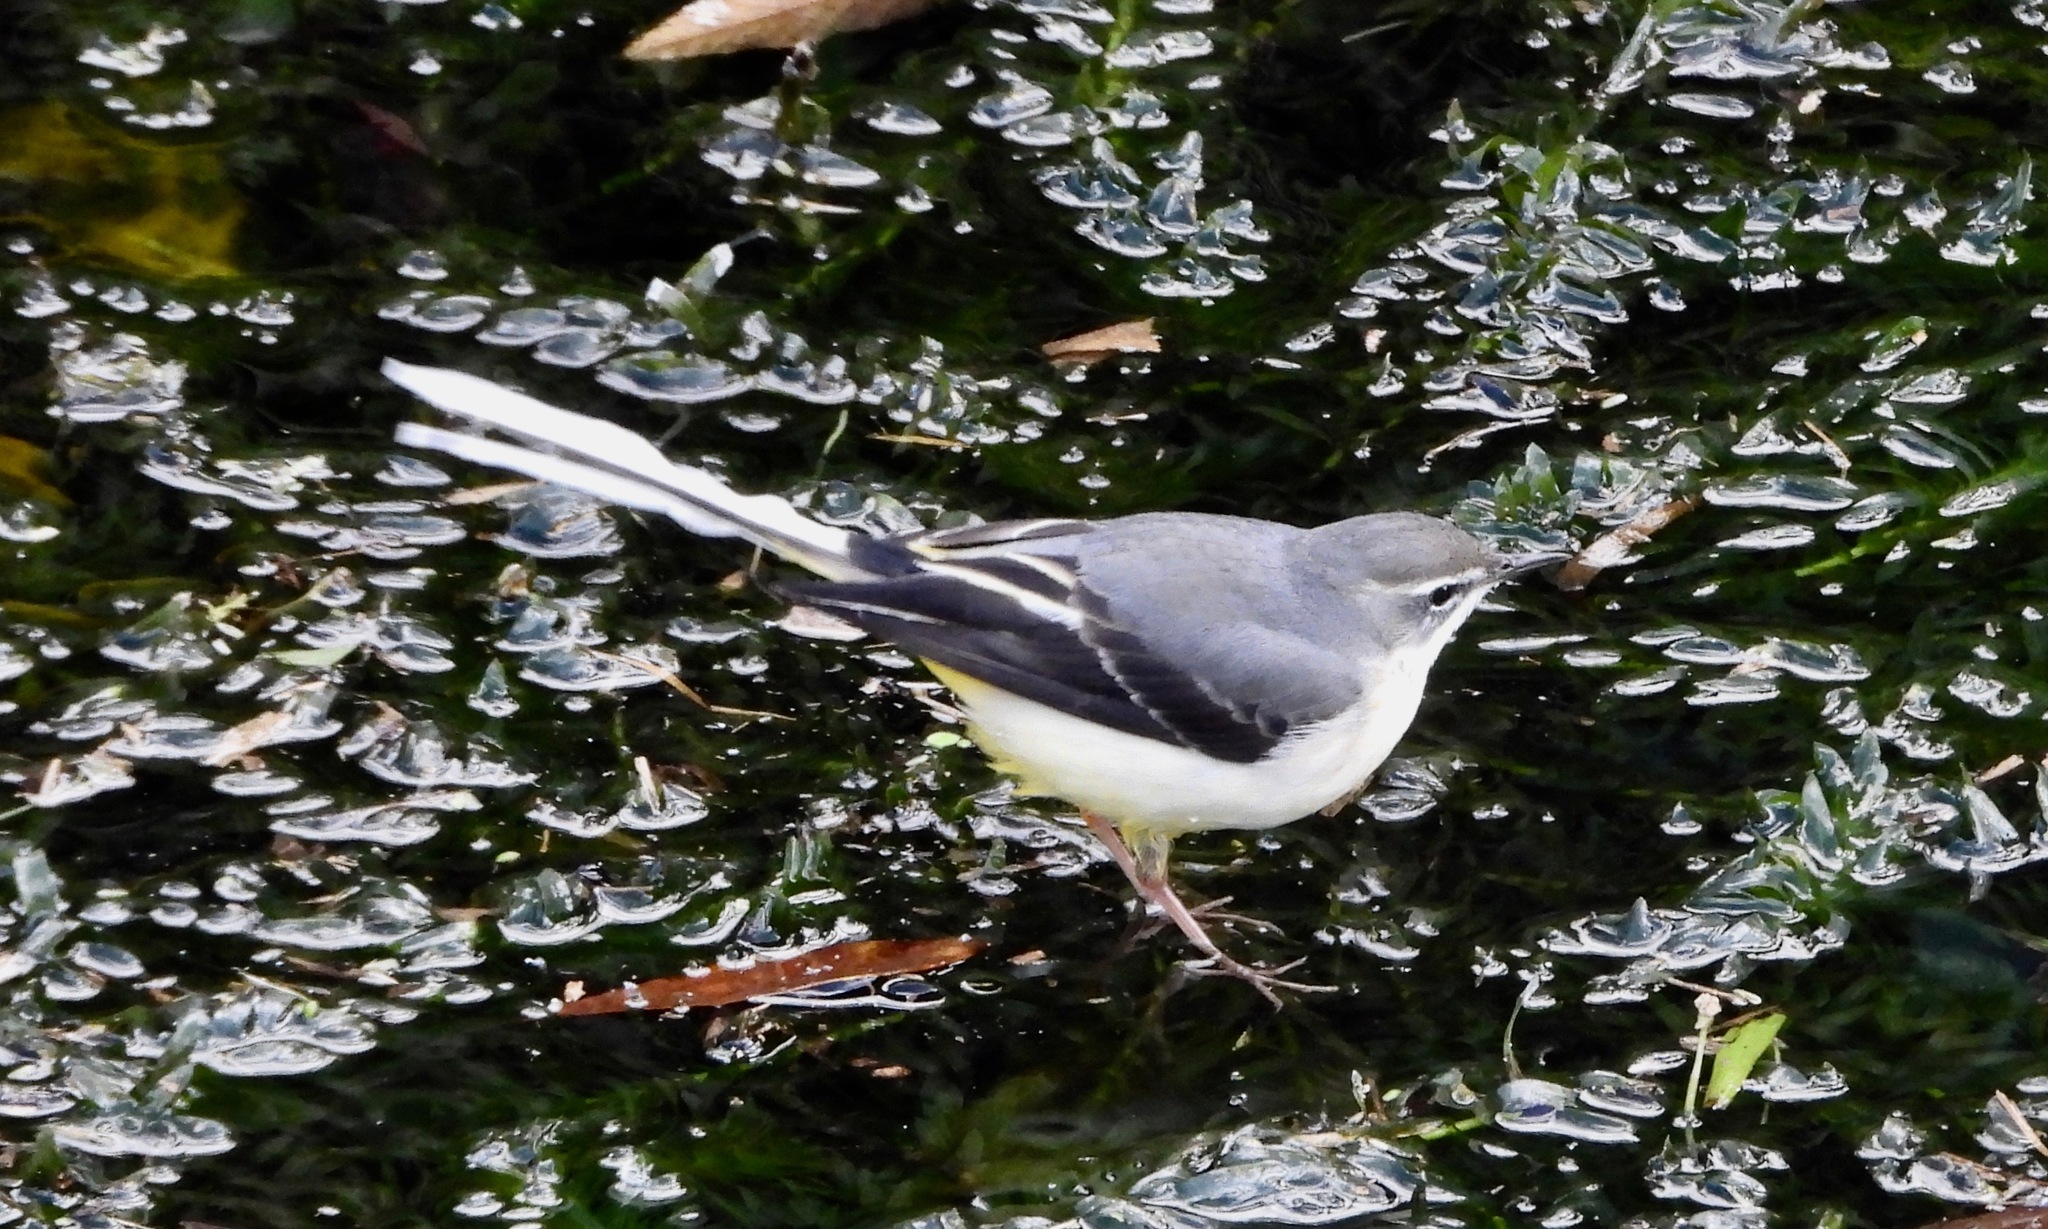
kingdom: Animalia
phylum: Chordata
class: Aves
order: Passeriformes
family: Motacillidae
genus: Motacilla
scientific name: Motacilla cinerea
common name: Grey wagtail
